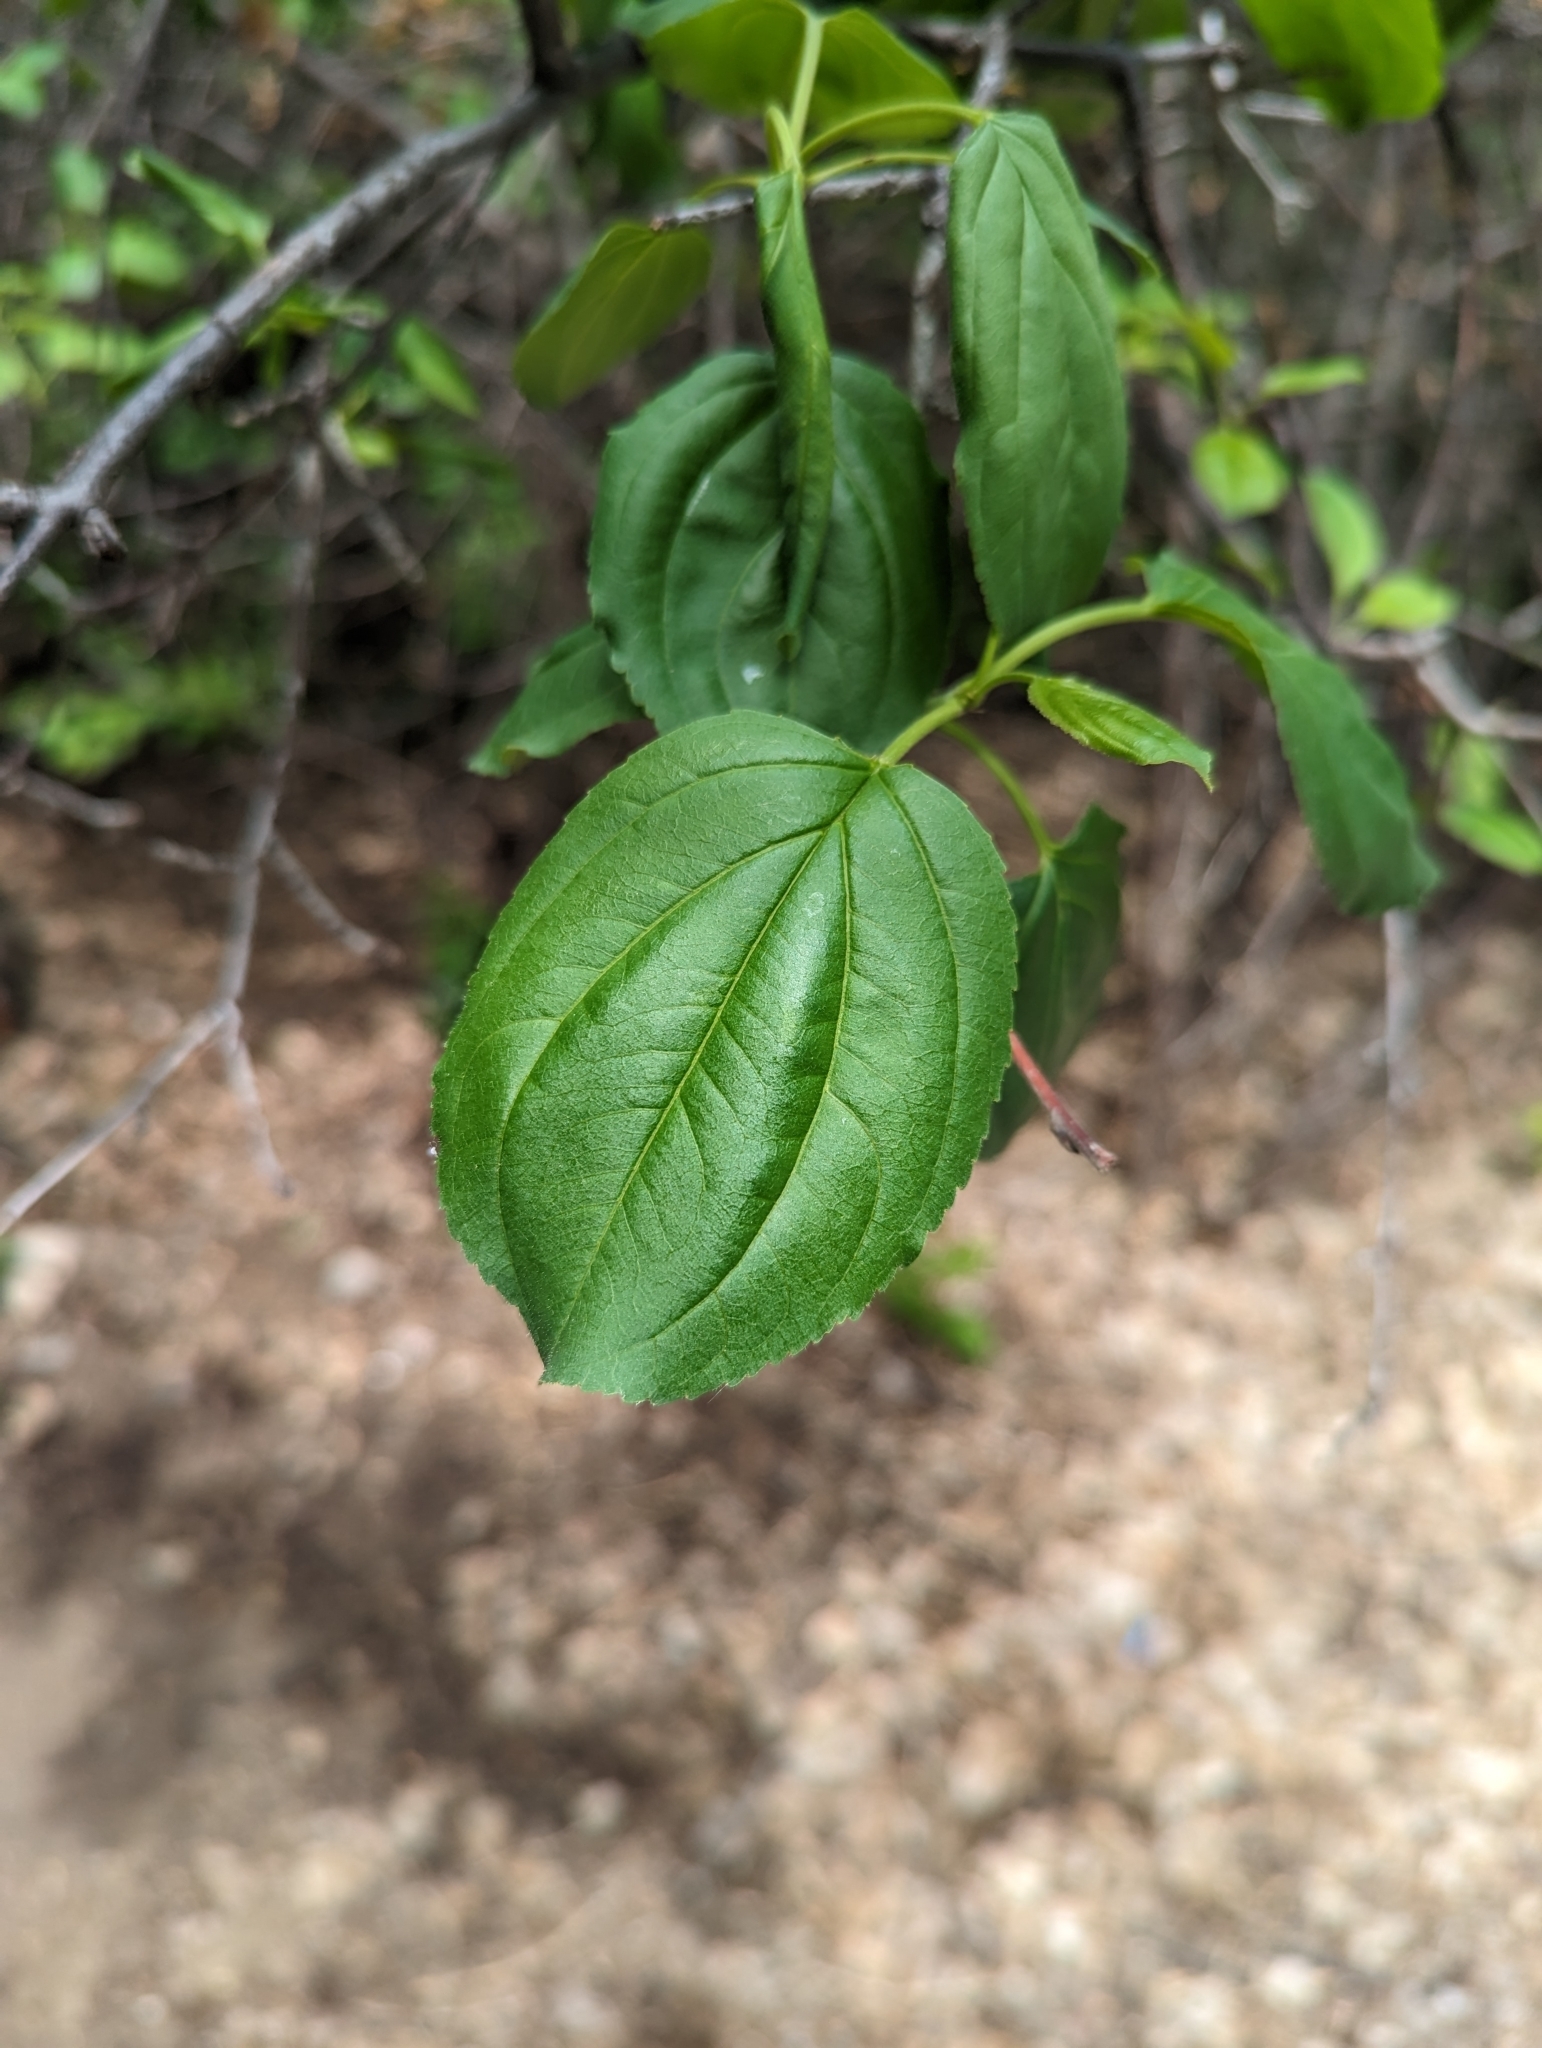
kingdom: Plantae
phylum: Tracheophyta
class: Magnoliopsida
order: Rosales
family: Rhamnaceae
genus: Rhamnus
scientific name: Rhamnus cathartica
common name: Common buckthorn
